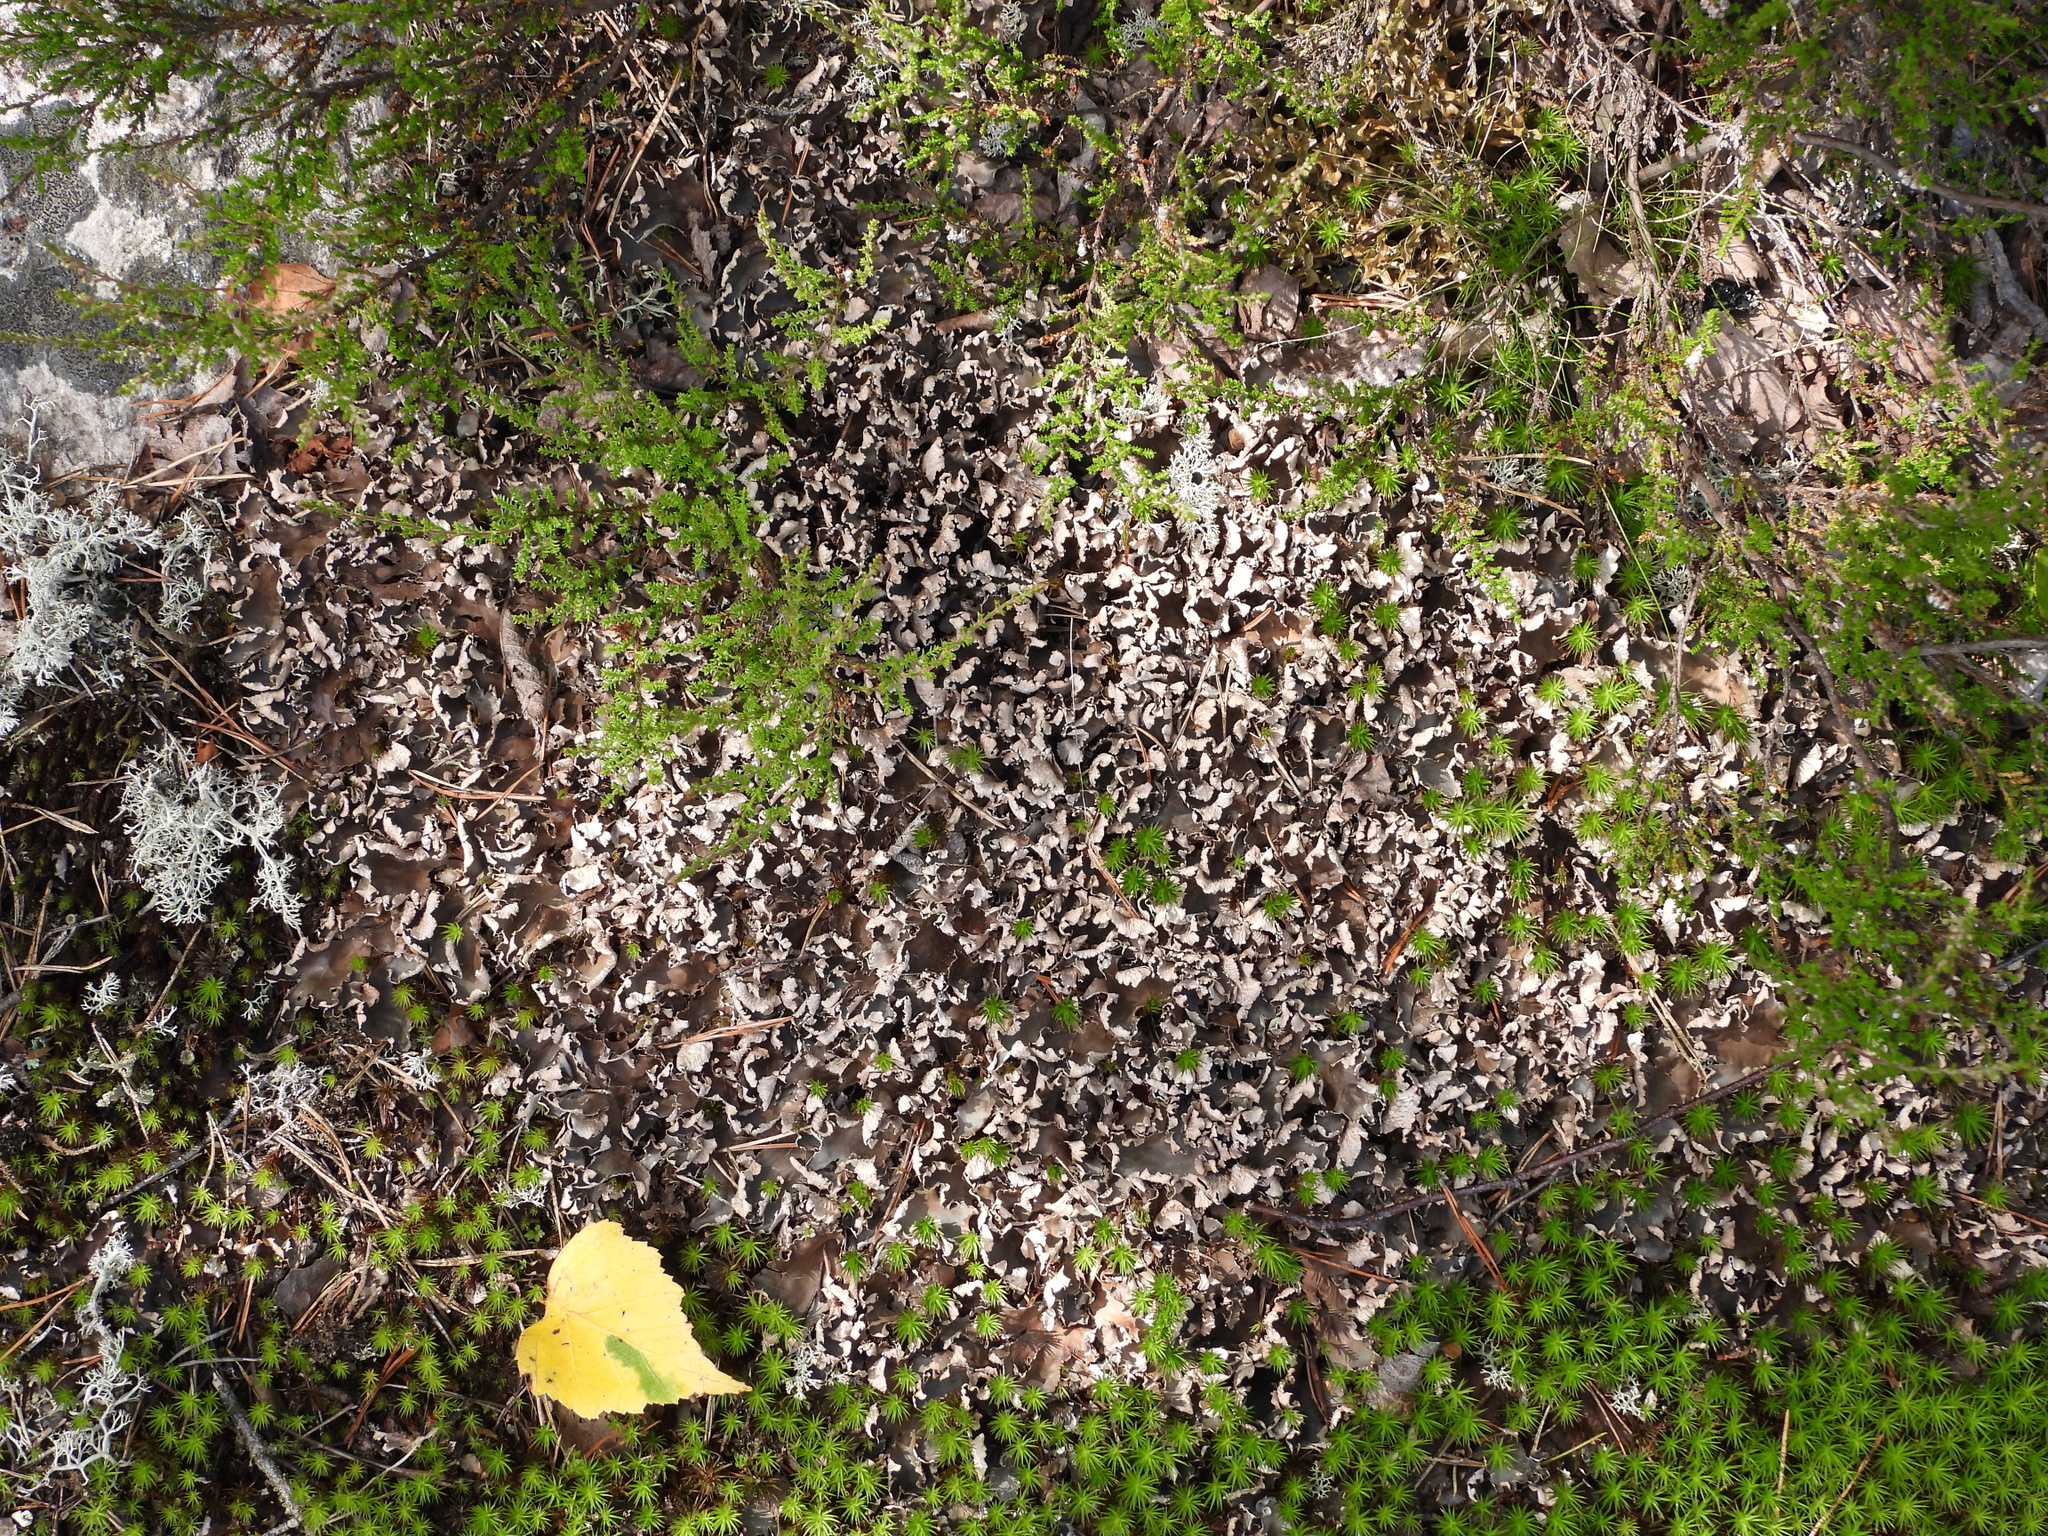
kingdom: Fungi
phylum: Ascomycota
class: Lecanoromycetes
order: Peltigerales
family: Peltigeraceae
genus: Peltigera
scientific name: Peltigera neopolydactyla
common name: Carpet pelt
